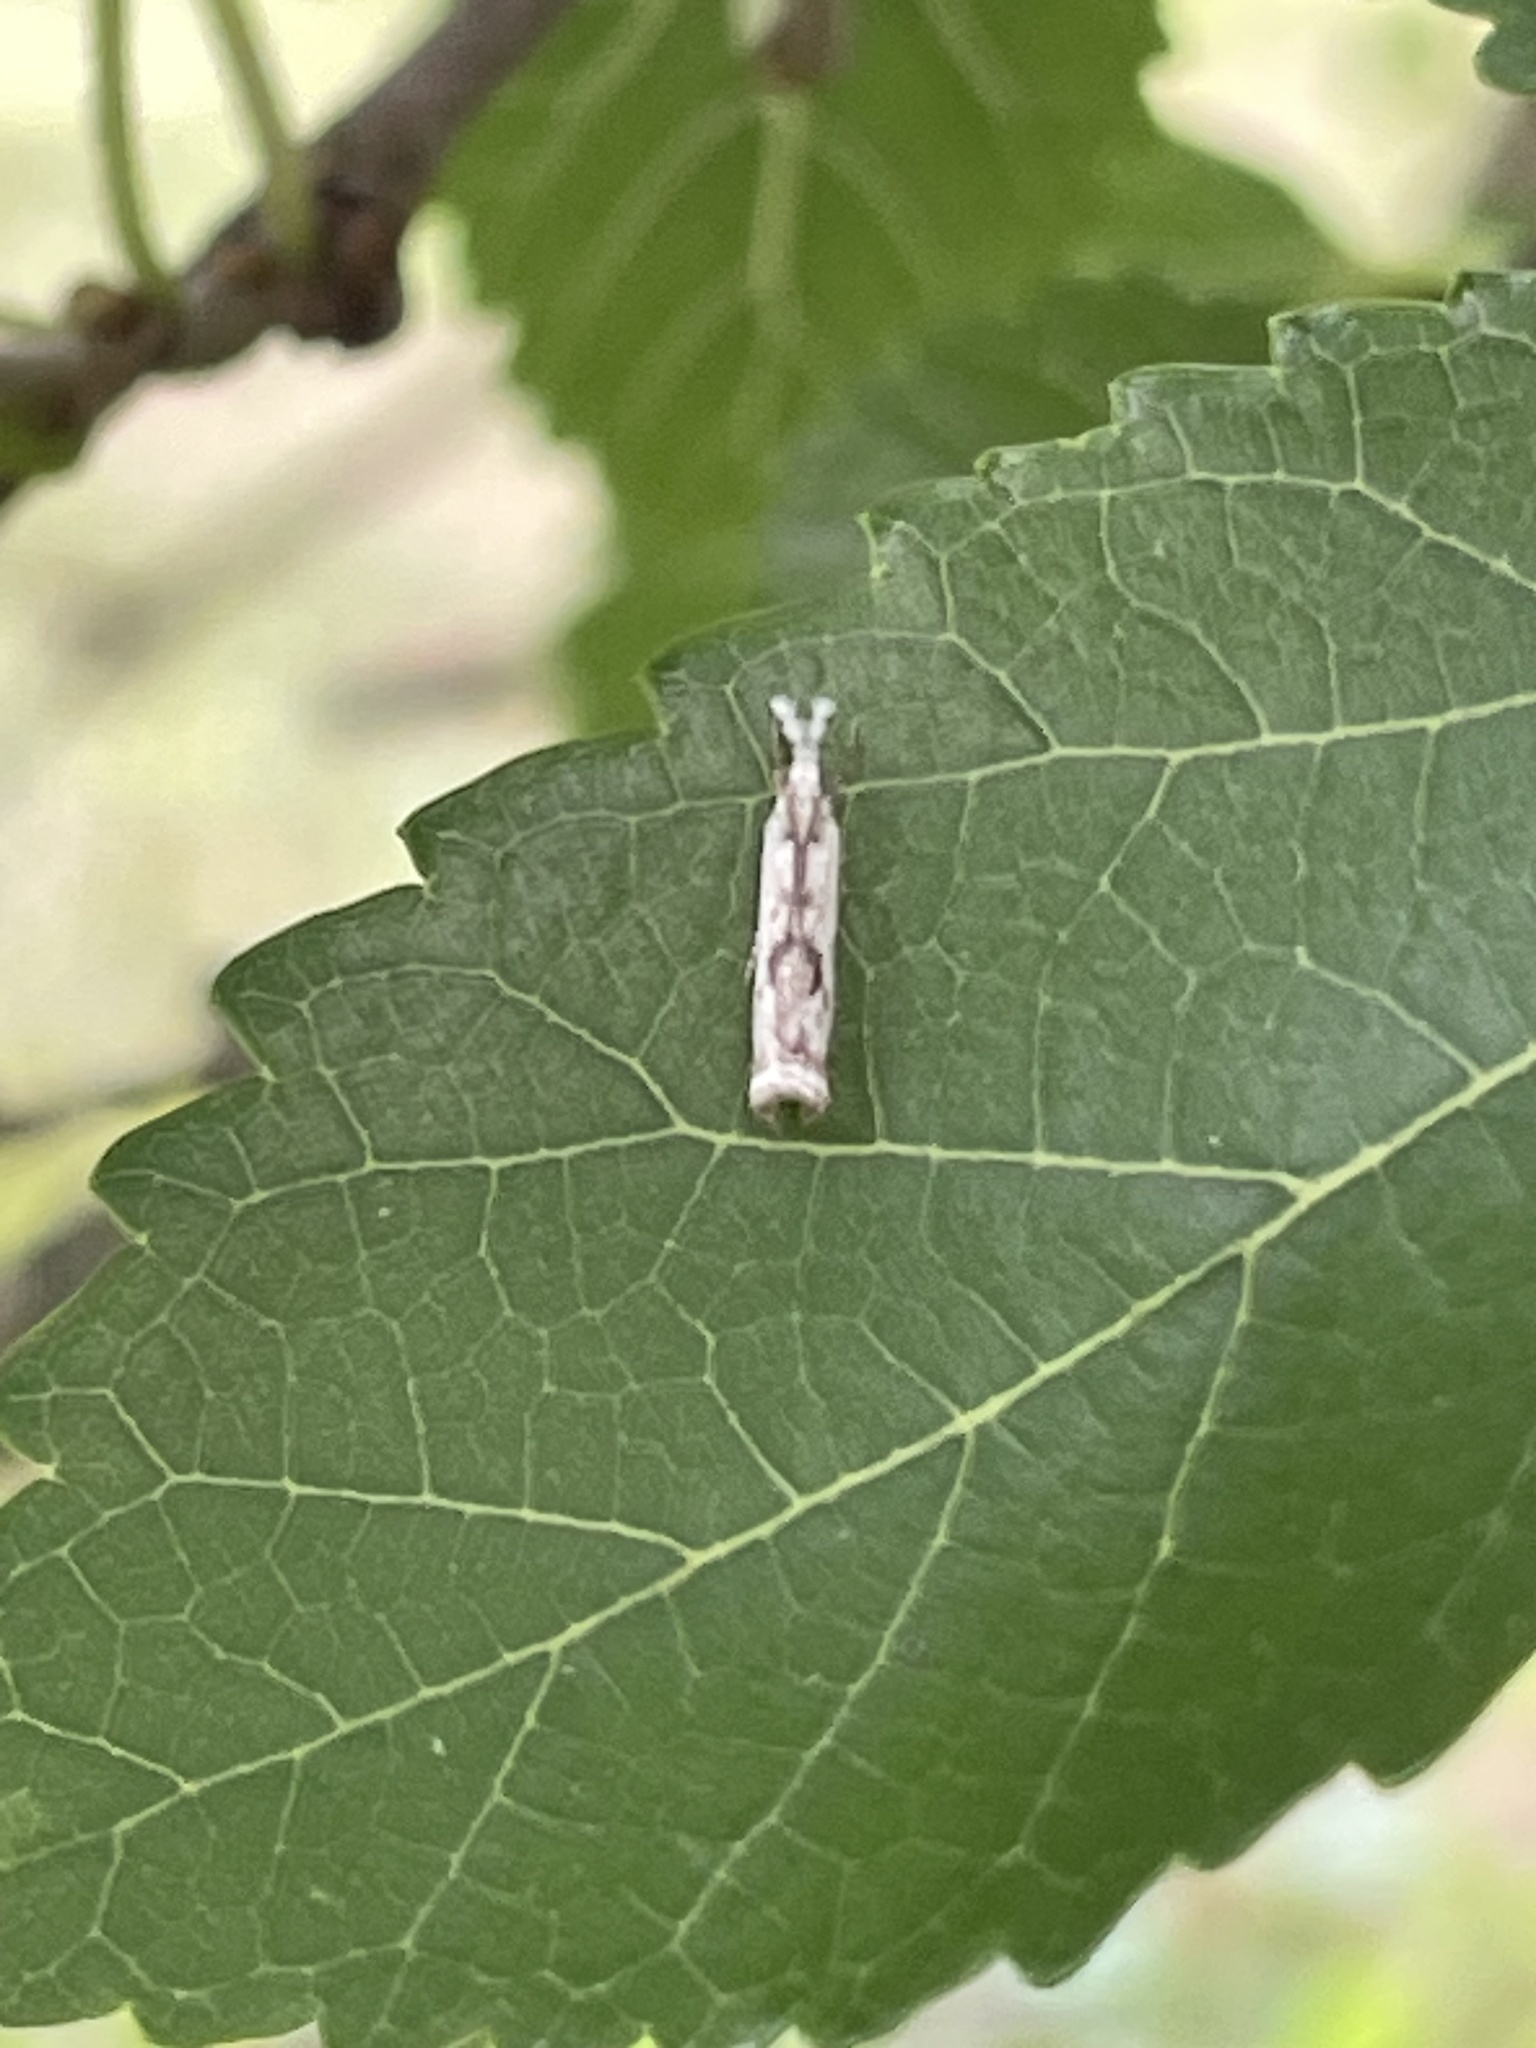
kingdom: Animalia
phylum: Arthropoda
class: Insecta
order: Lepidoptera
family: Crambidae
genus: Microcrambus
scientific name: Microcrambus elegans
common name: Elegant grass-veneer
